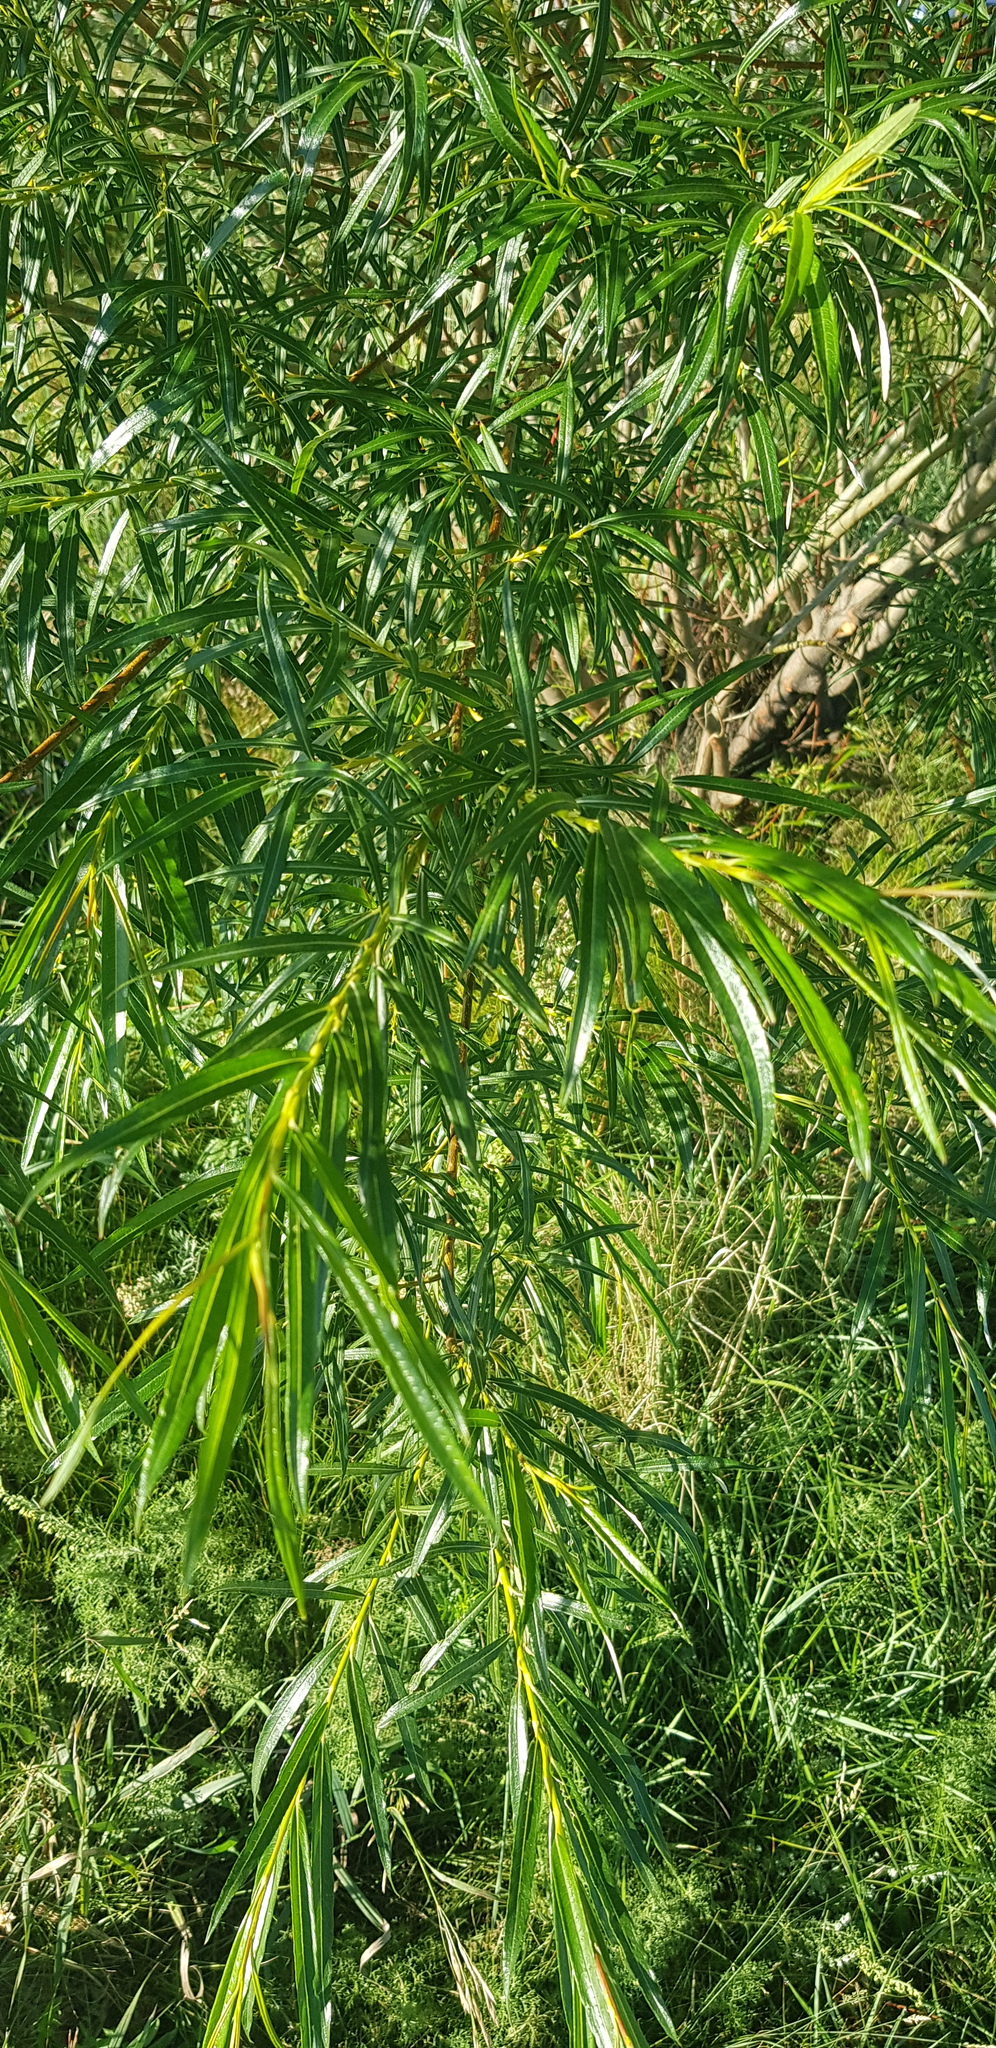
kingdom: Plantae
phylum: Tracheophyta
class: Magnoliopsida
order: Malpighiales
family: Salicaceae
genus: Salix
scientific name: Salix viminalis
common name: Osier
